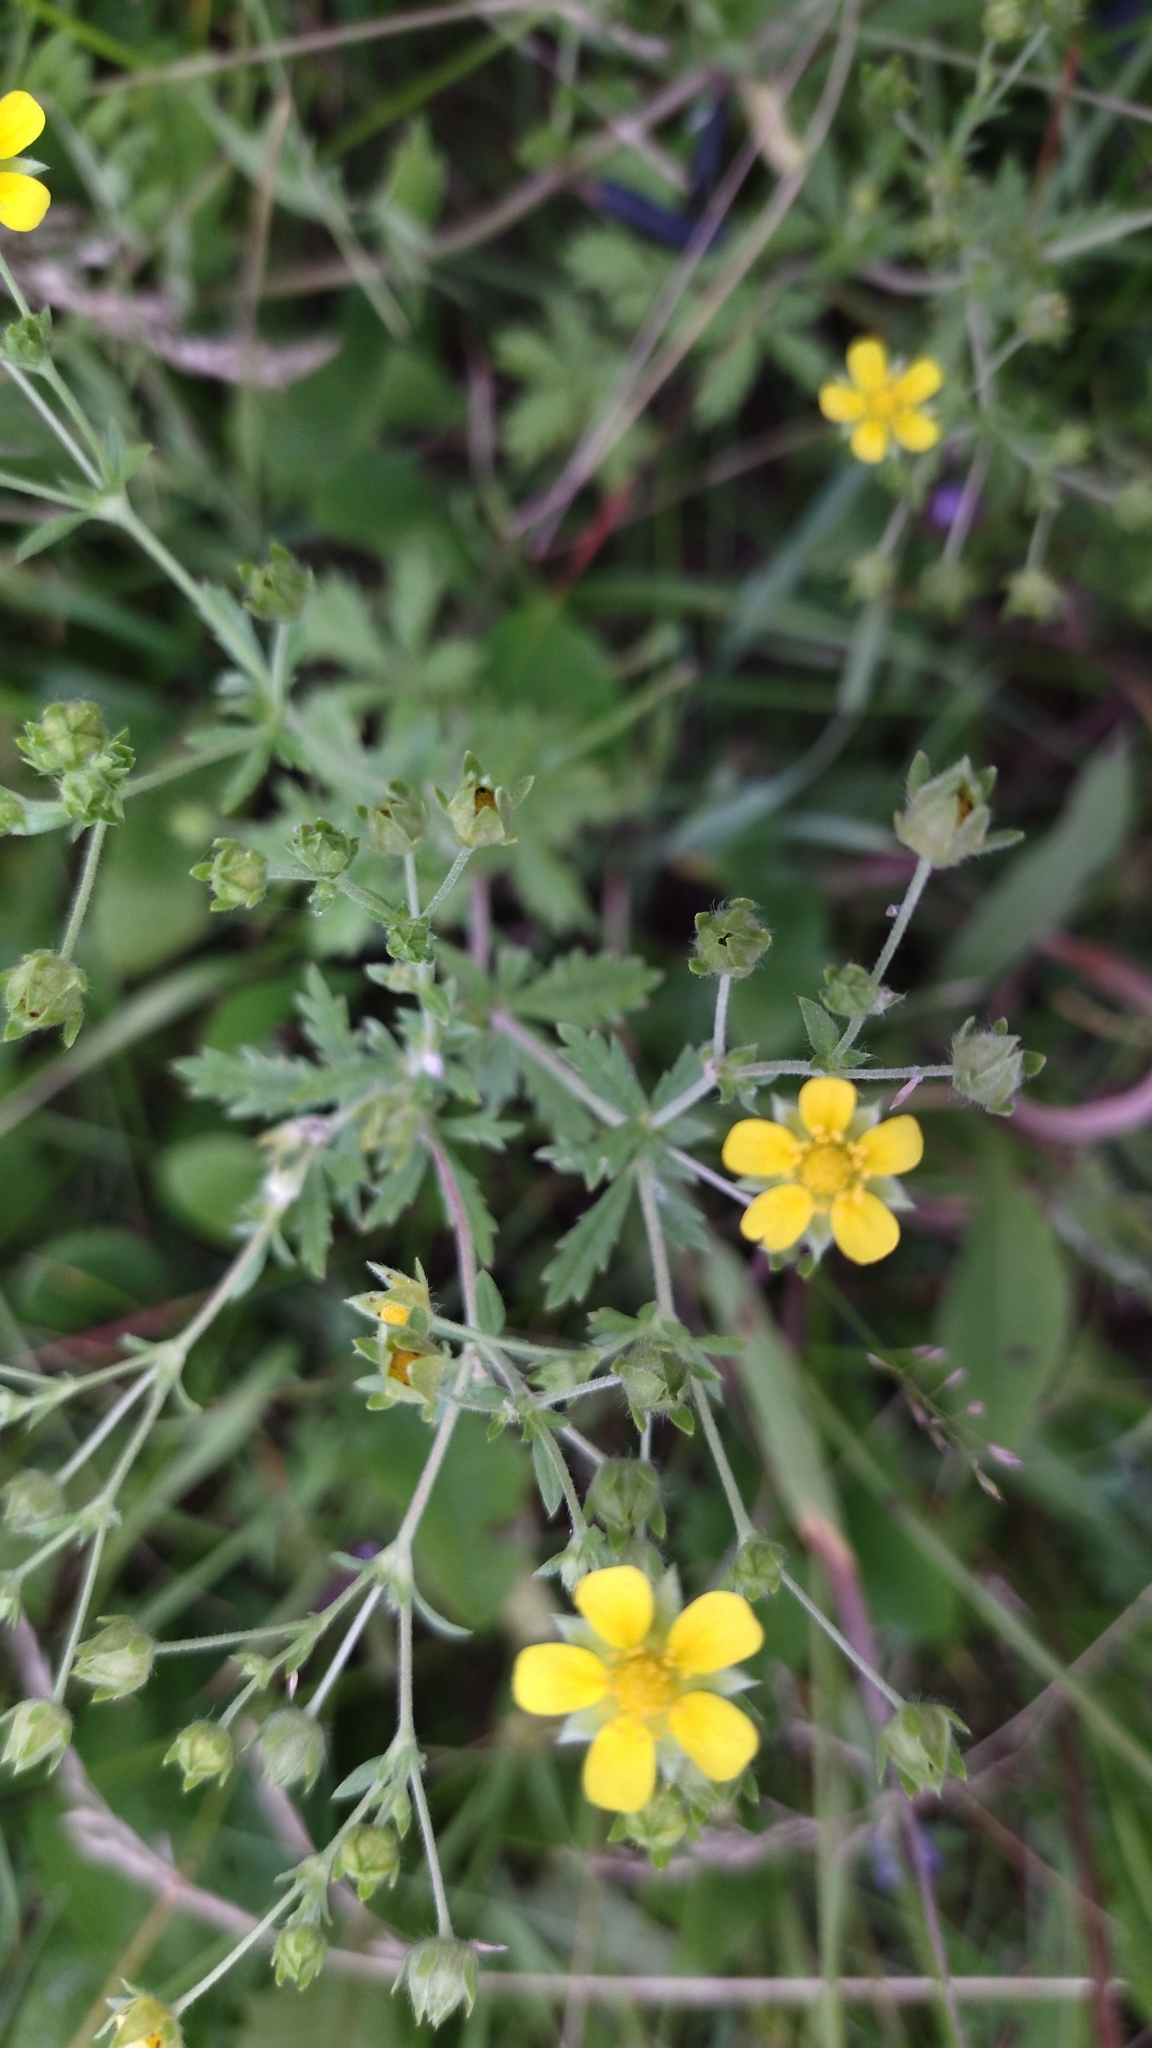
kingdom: Plantae
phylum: Tracheophyta
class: Magnoliopsida
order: Rosales
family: Rosaceae
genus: Potentilla
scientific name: Potentilla argentea
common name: Hoary cinquefoil
